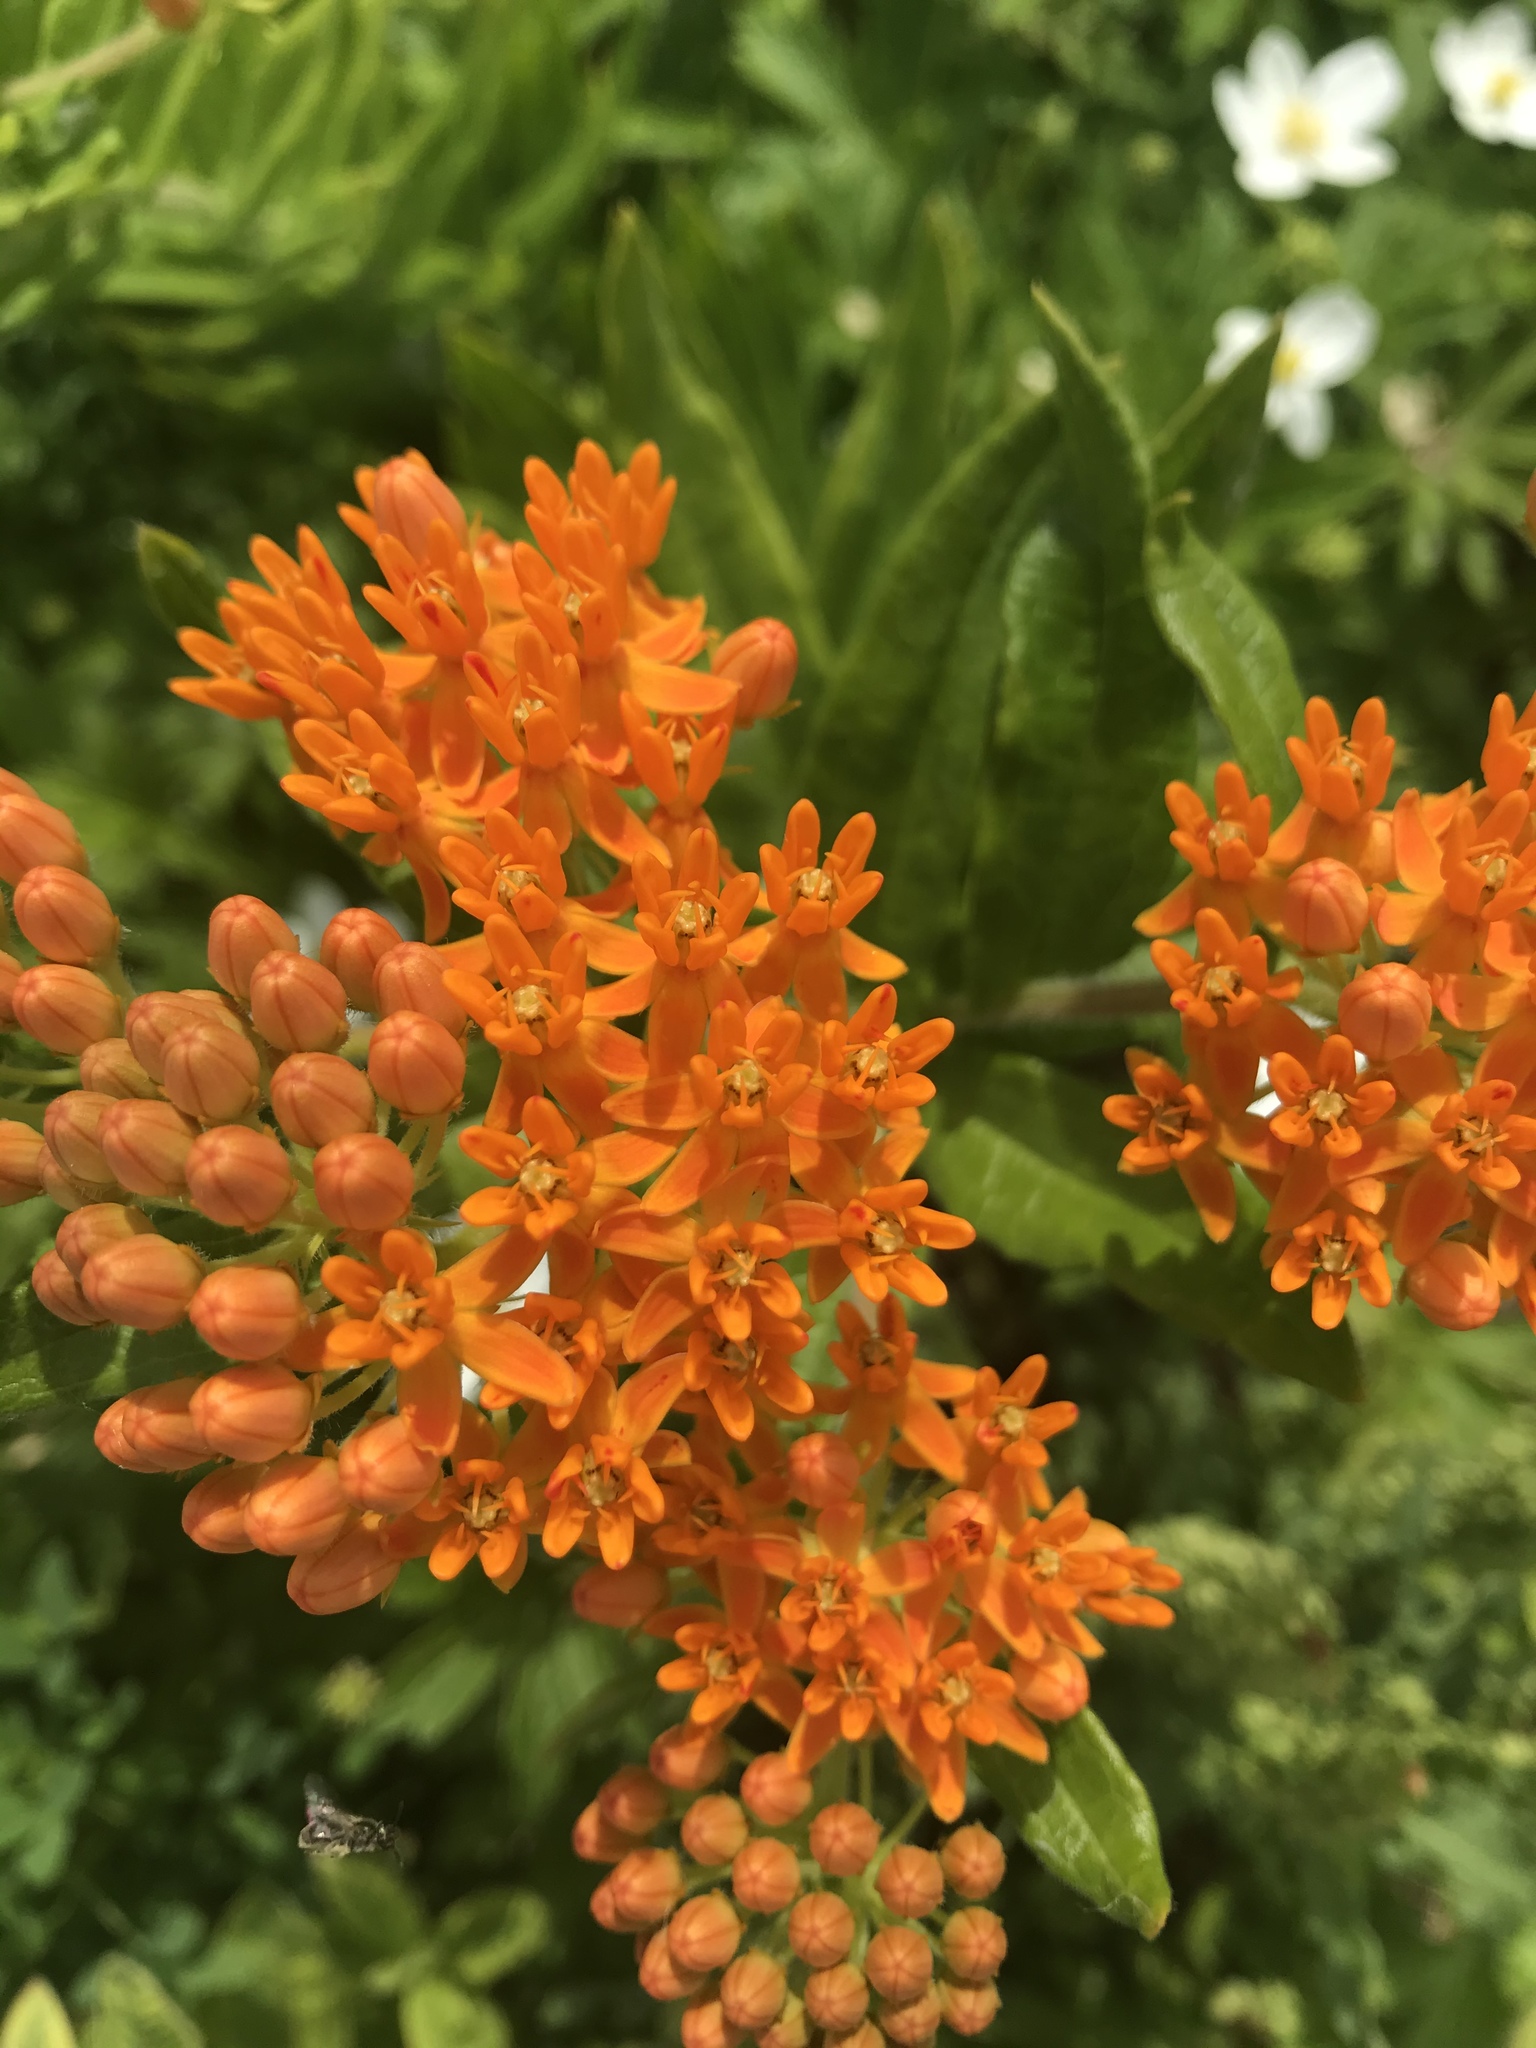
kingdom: Plantae
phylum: Tracheophyta
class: Magnoliopsida
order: Gentianales
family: Apocynaceae
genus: Asclepias
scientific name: Asclepias tuberosa
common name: Butterfly milkweed
